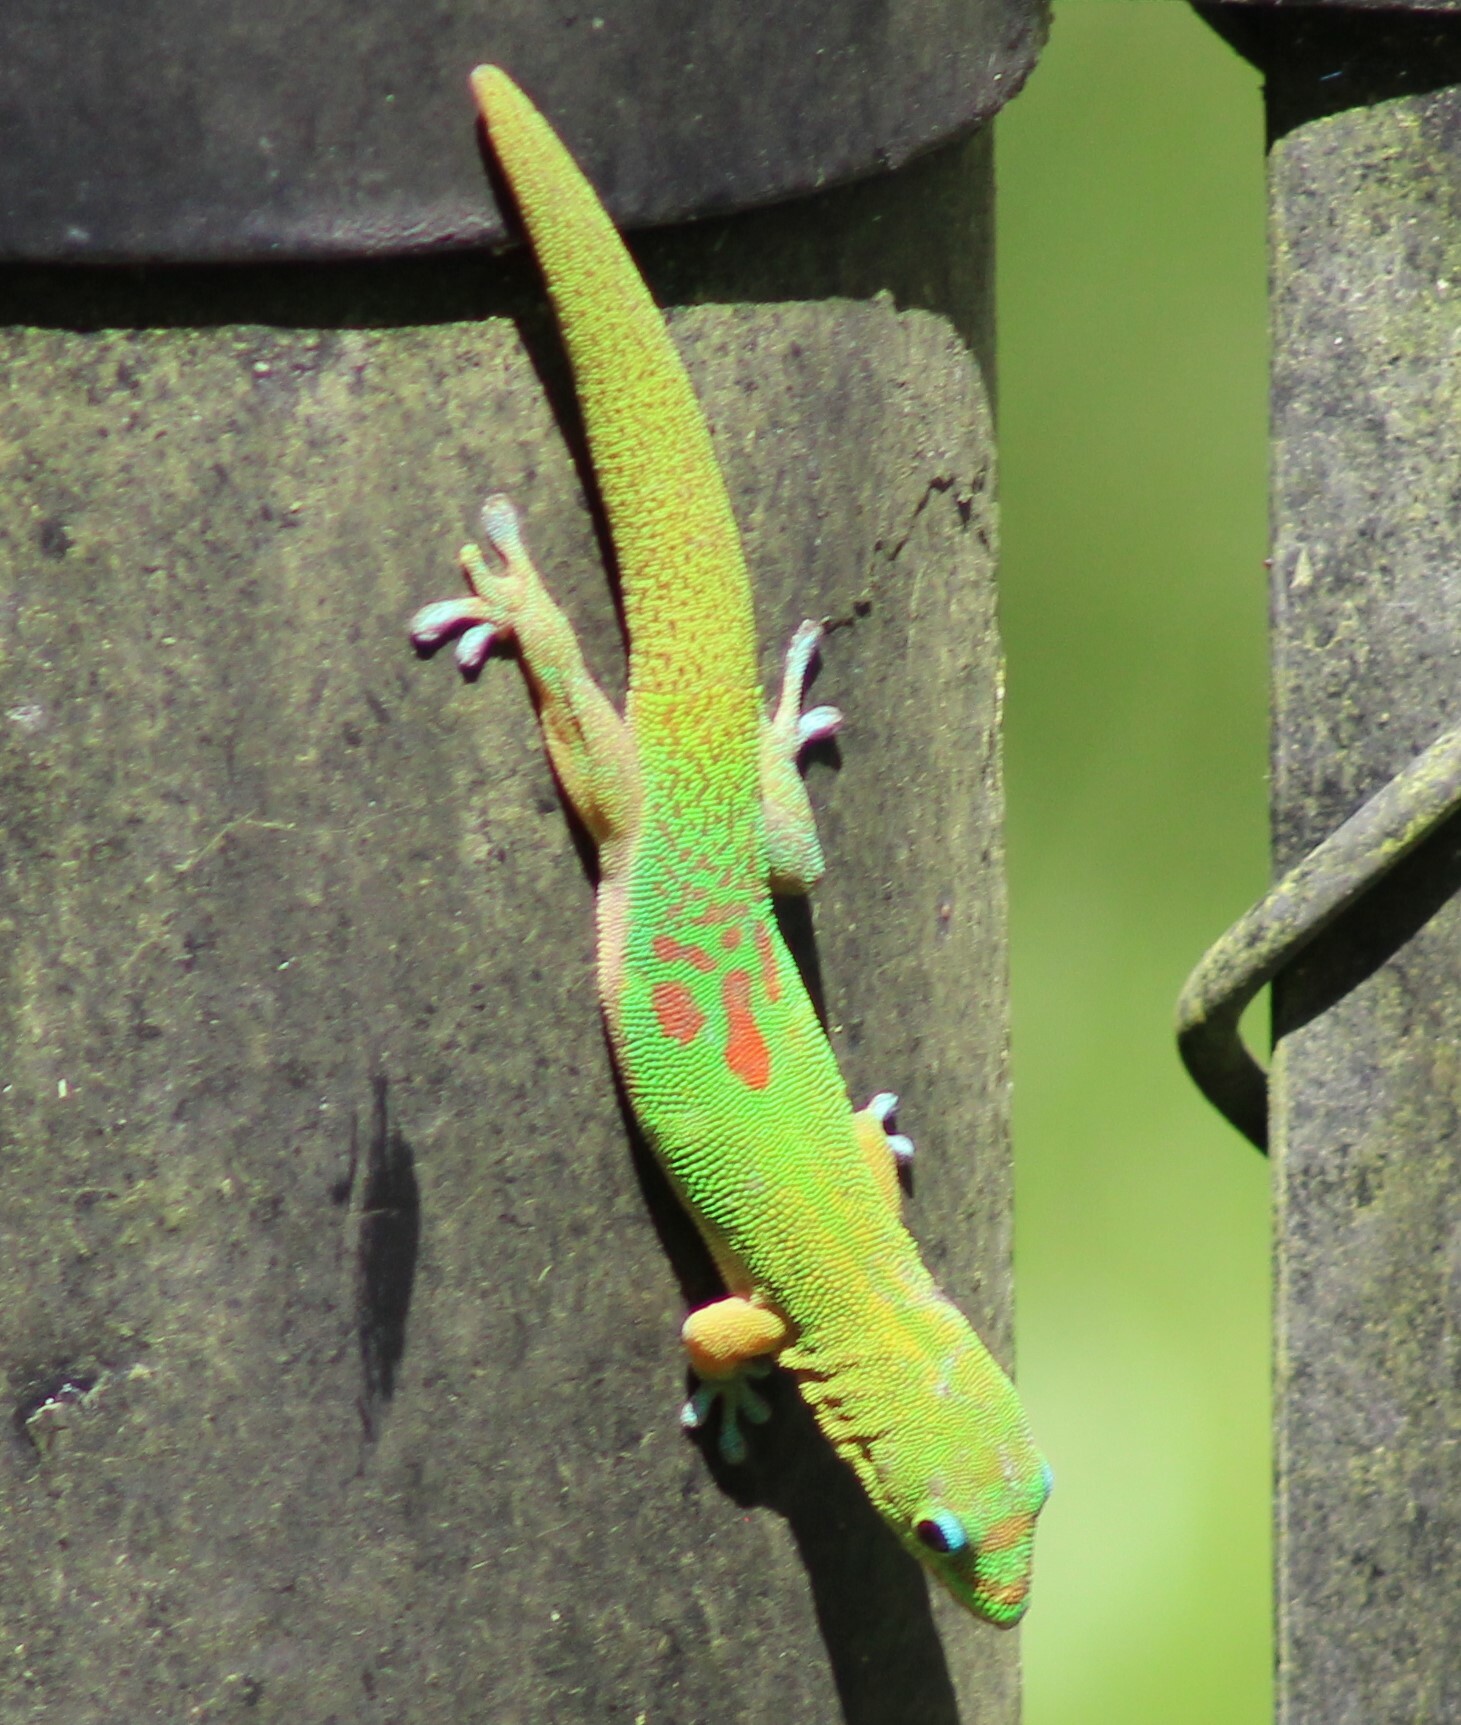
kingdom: Animalia
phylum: Chordata
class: Squamata
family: Gekkonidae
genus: Phelsuma
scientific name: Phelsuma laticauda
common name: Gold dust day gecko
